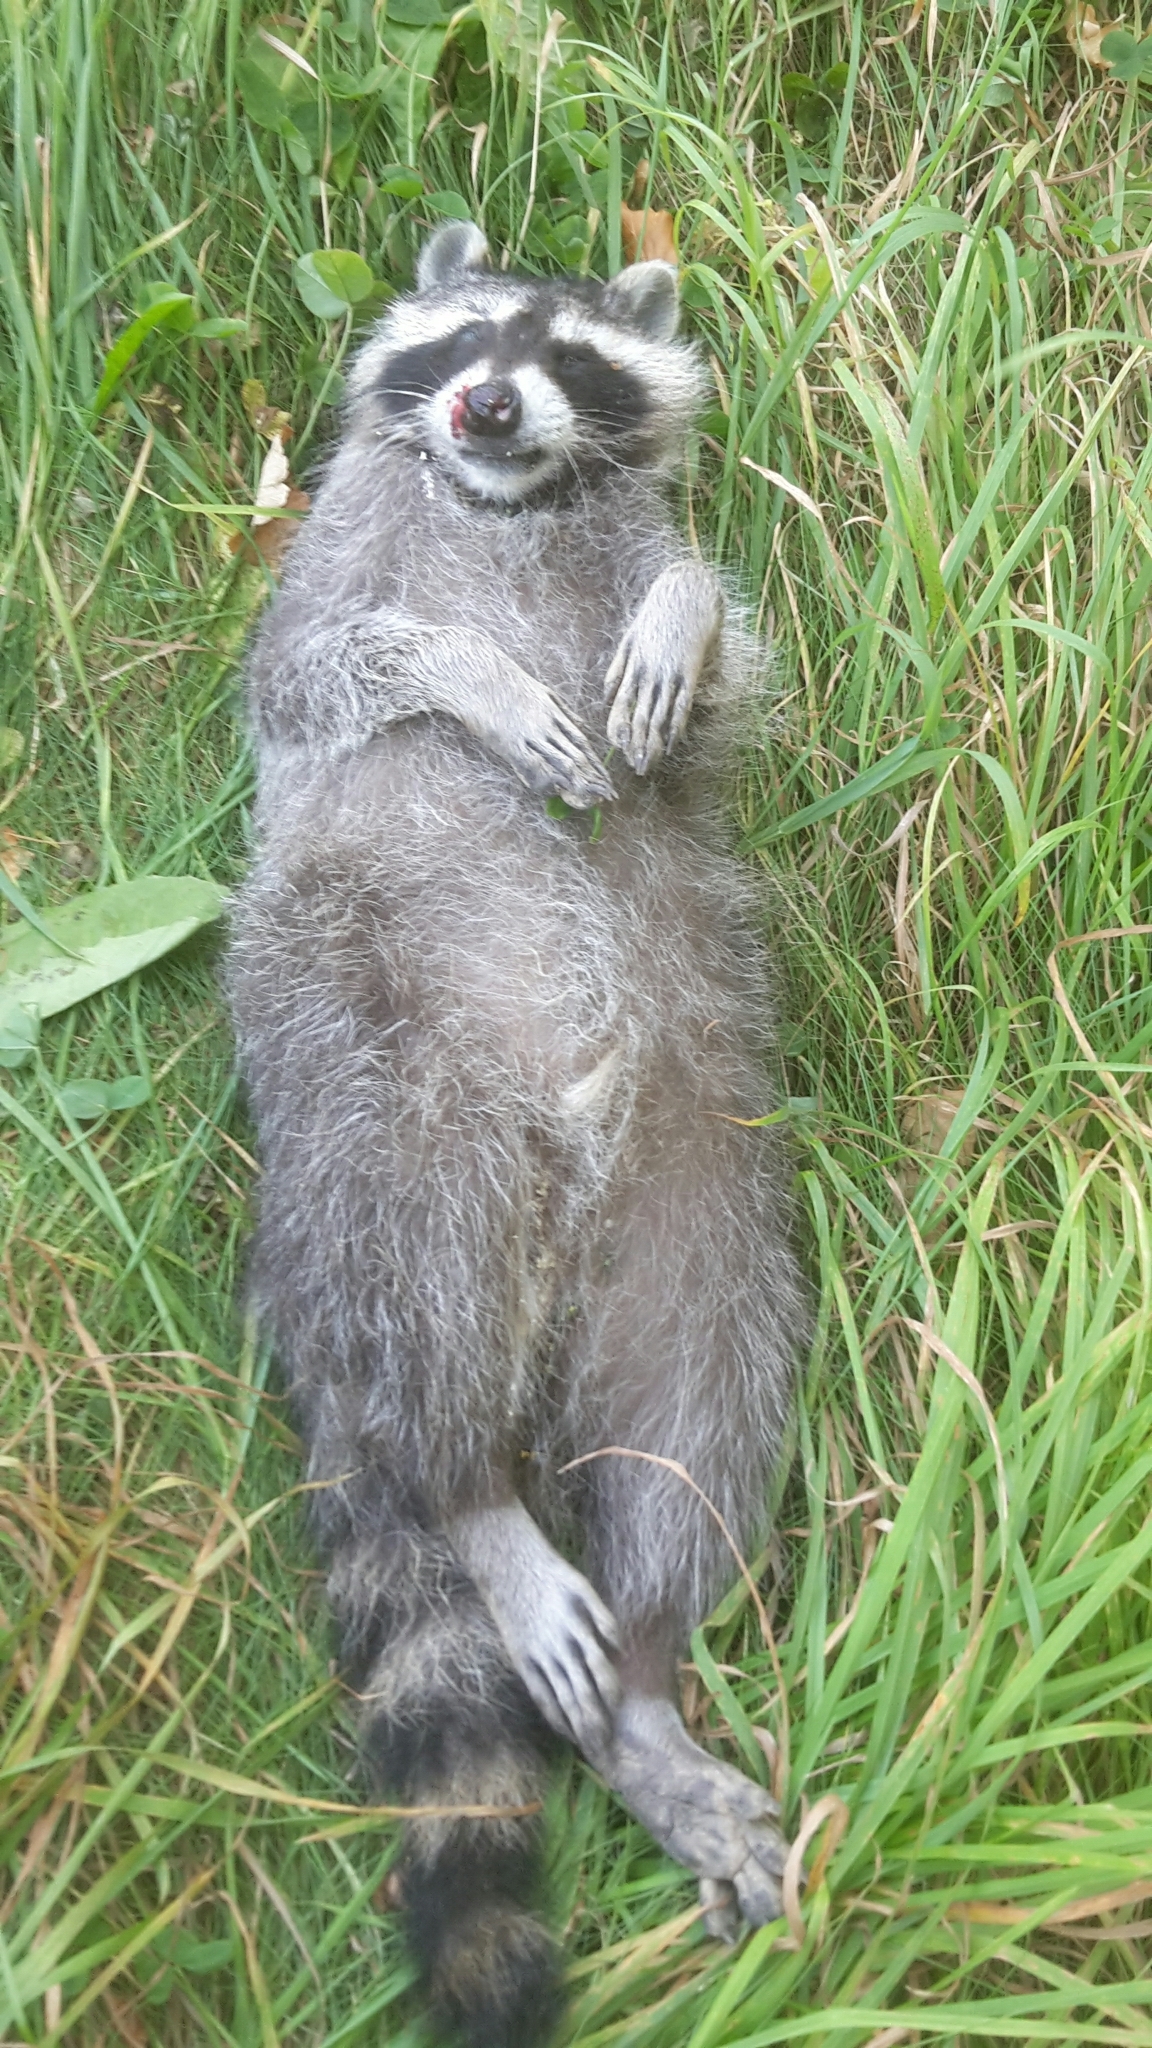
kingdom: Animalia
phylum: Chordata
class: Mammalia
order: Carnivora
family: Procyonidae
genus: Procyon
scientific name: Procyon lotor
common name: Raccoon
